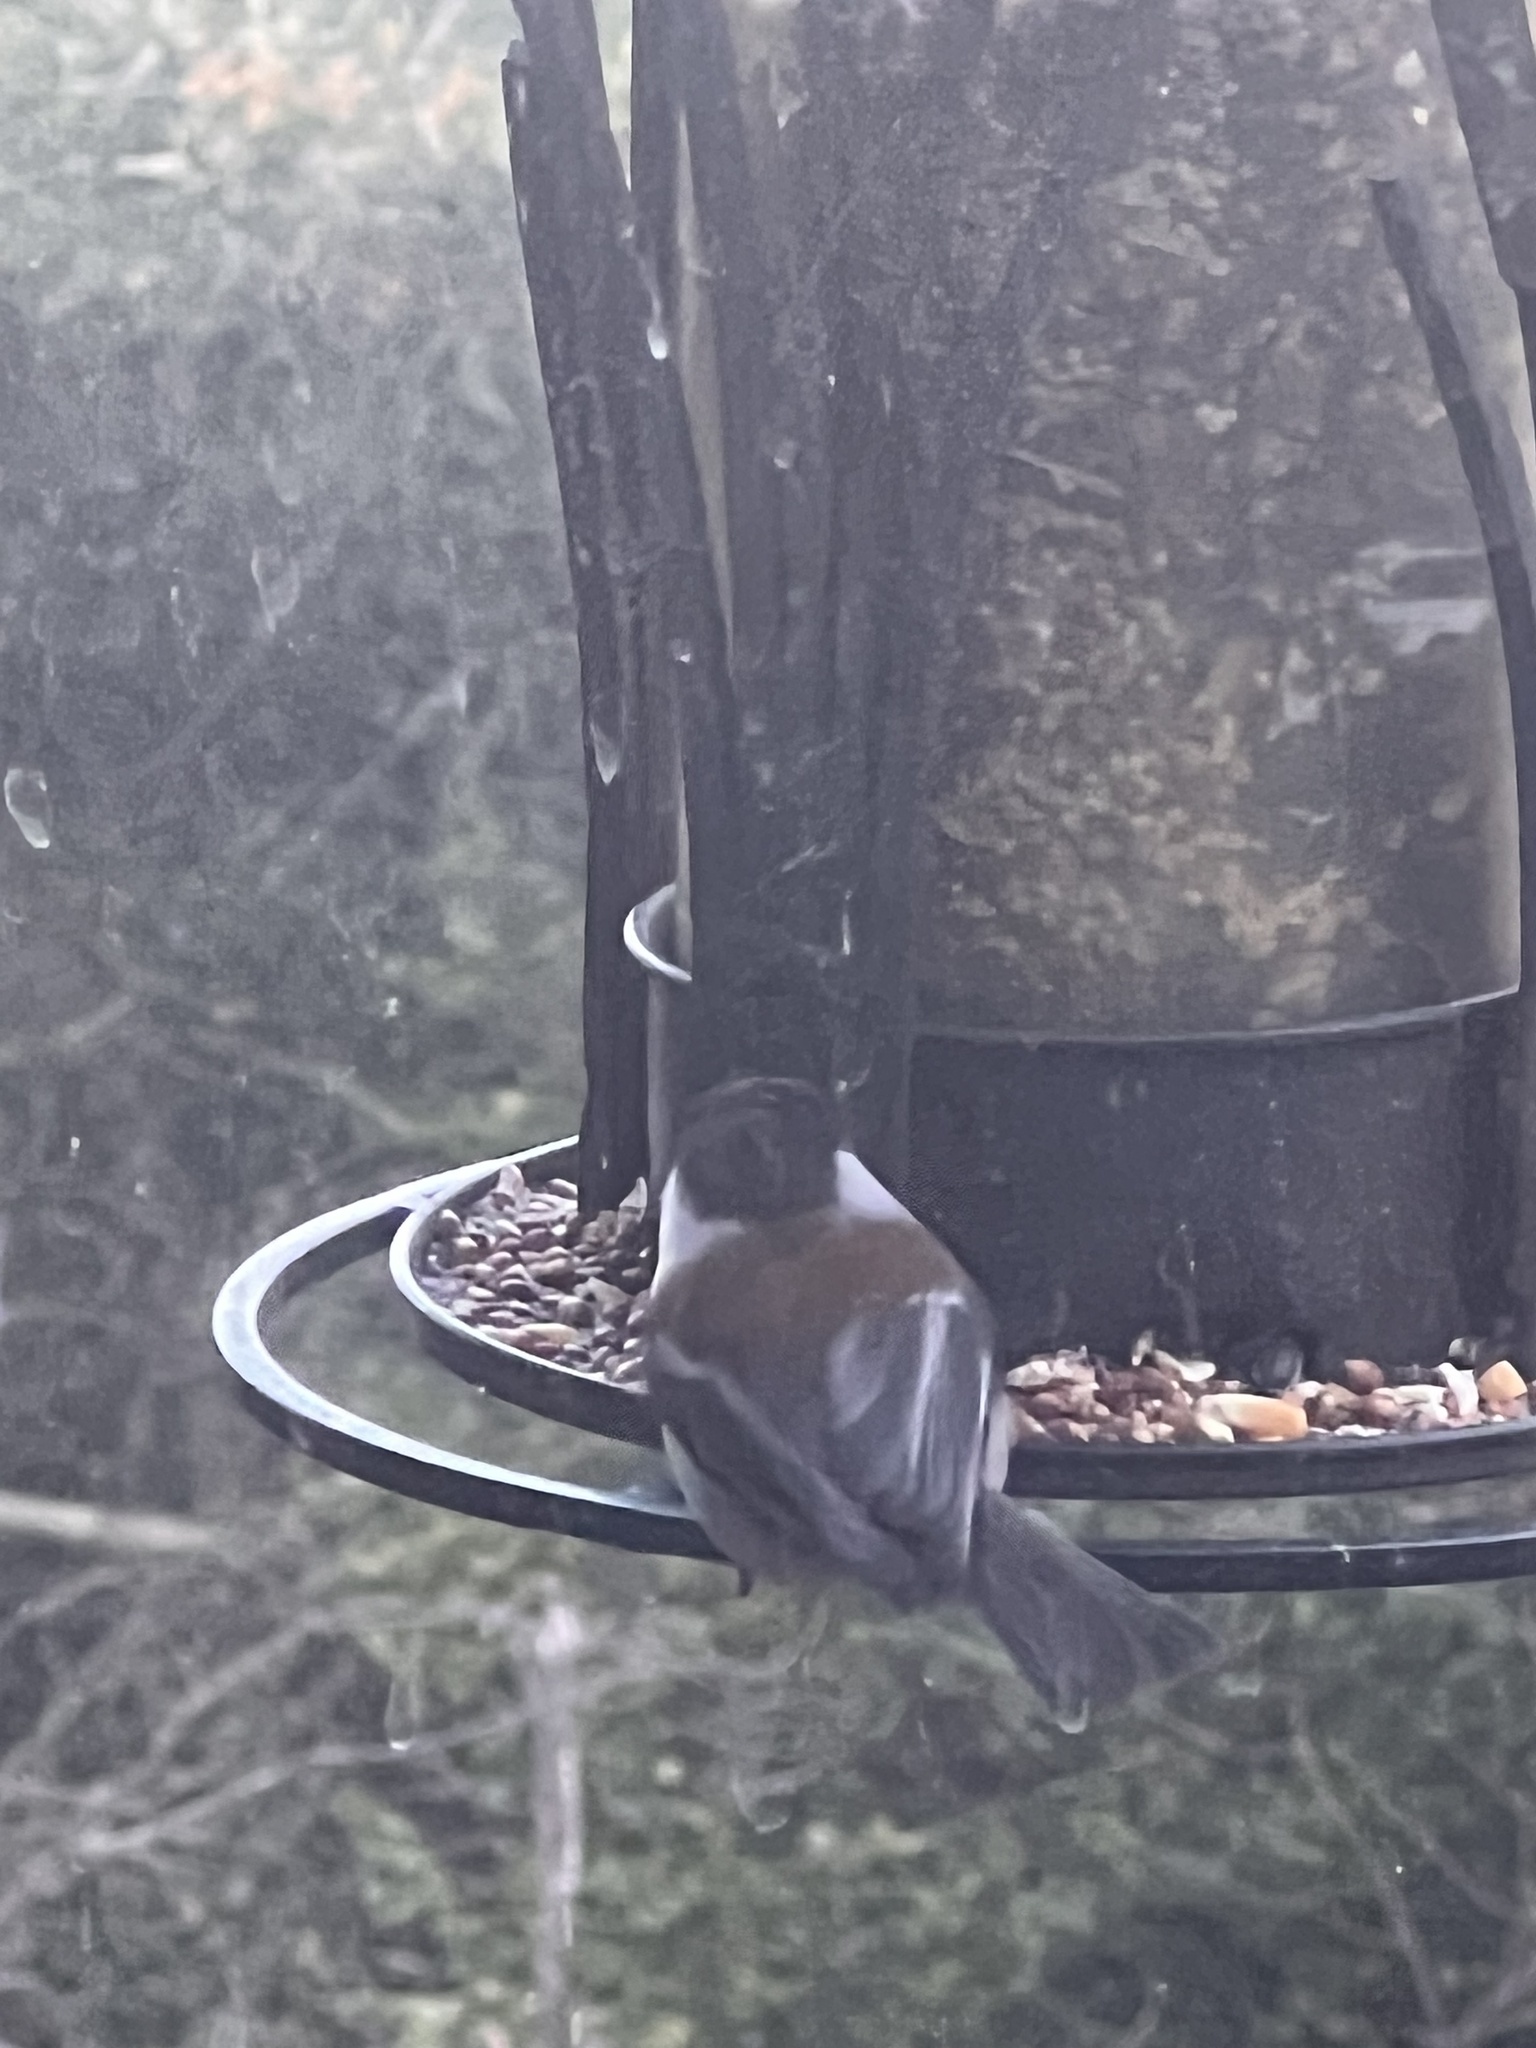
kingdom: Animalia
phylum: Chordata
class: Aves
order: Passeriformes
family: Paridae
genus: Poecile
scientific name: Poecile rufescens
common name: Chestnut-backed chickadee
